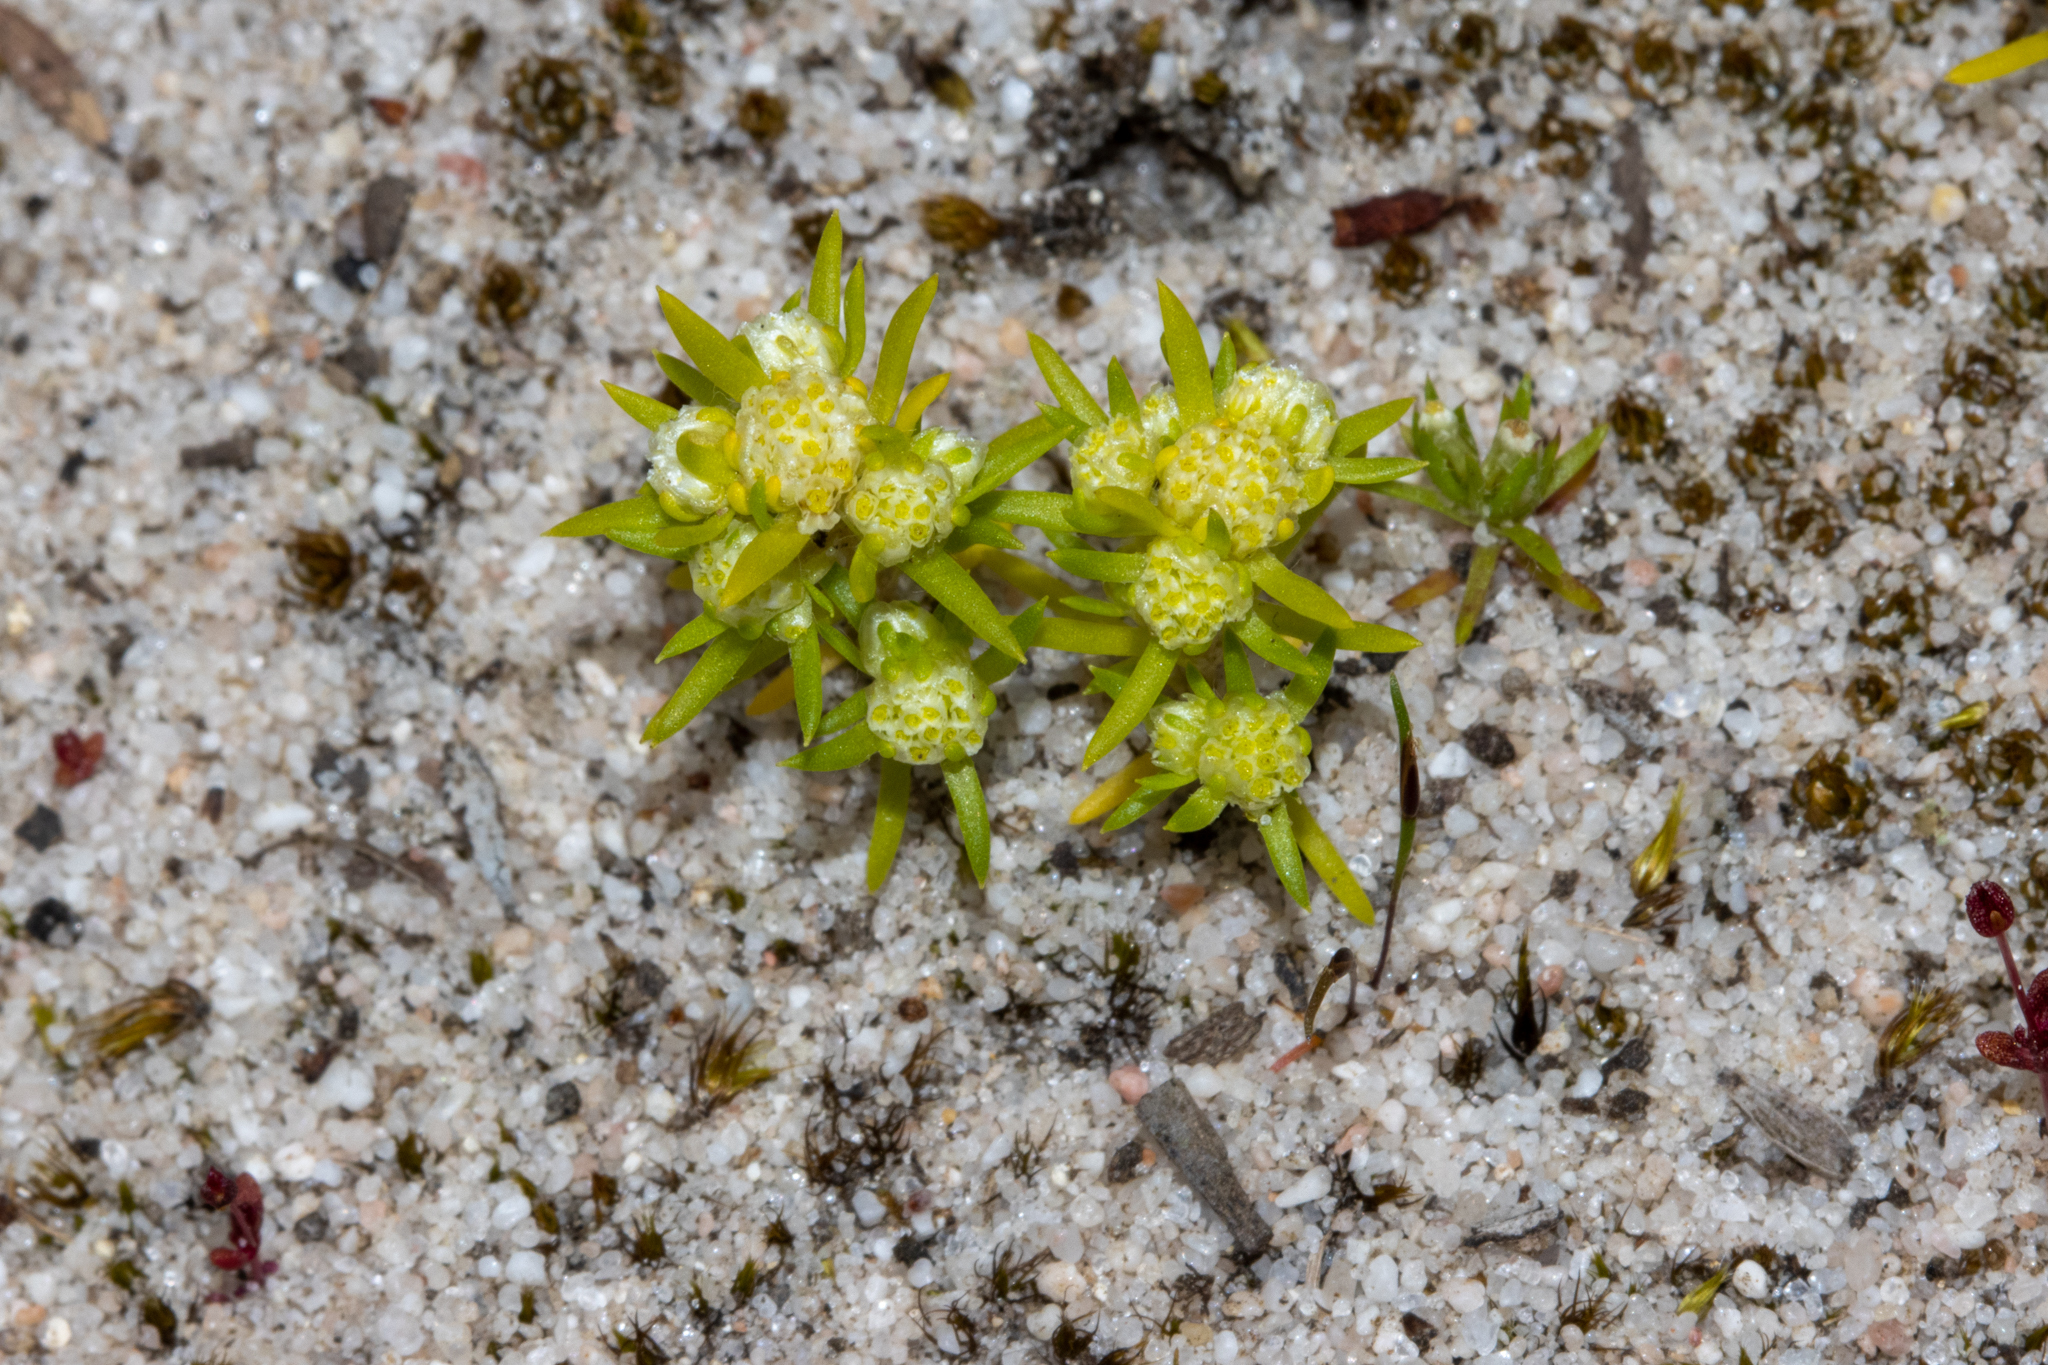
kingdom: Plantae
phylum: Tracheophyta
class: Magnoliopsida
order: Asterales
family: Asteraceae
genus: Siloxerus
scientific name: Siloxerus multiflorus
